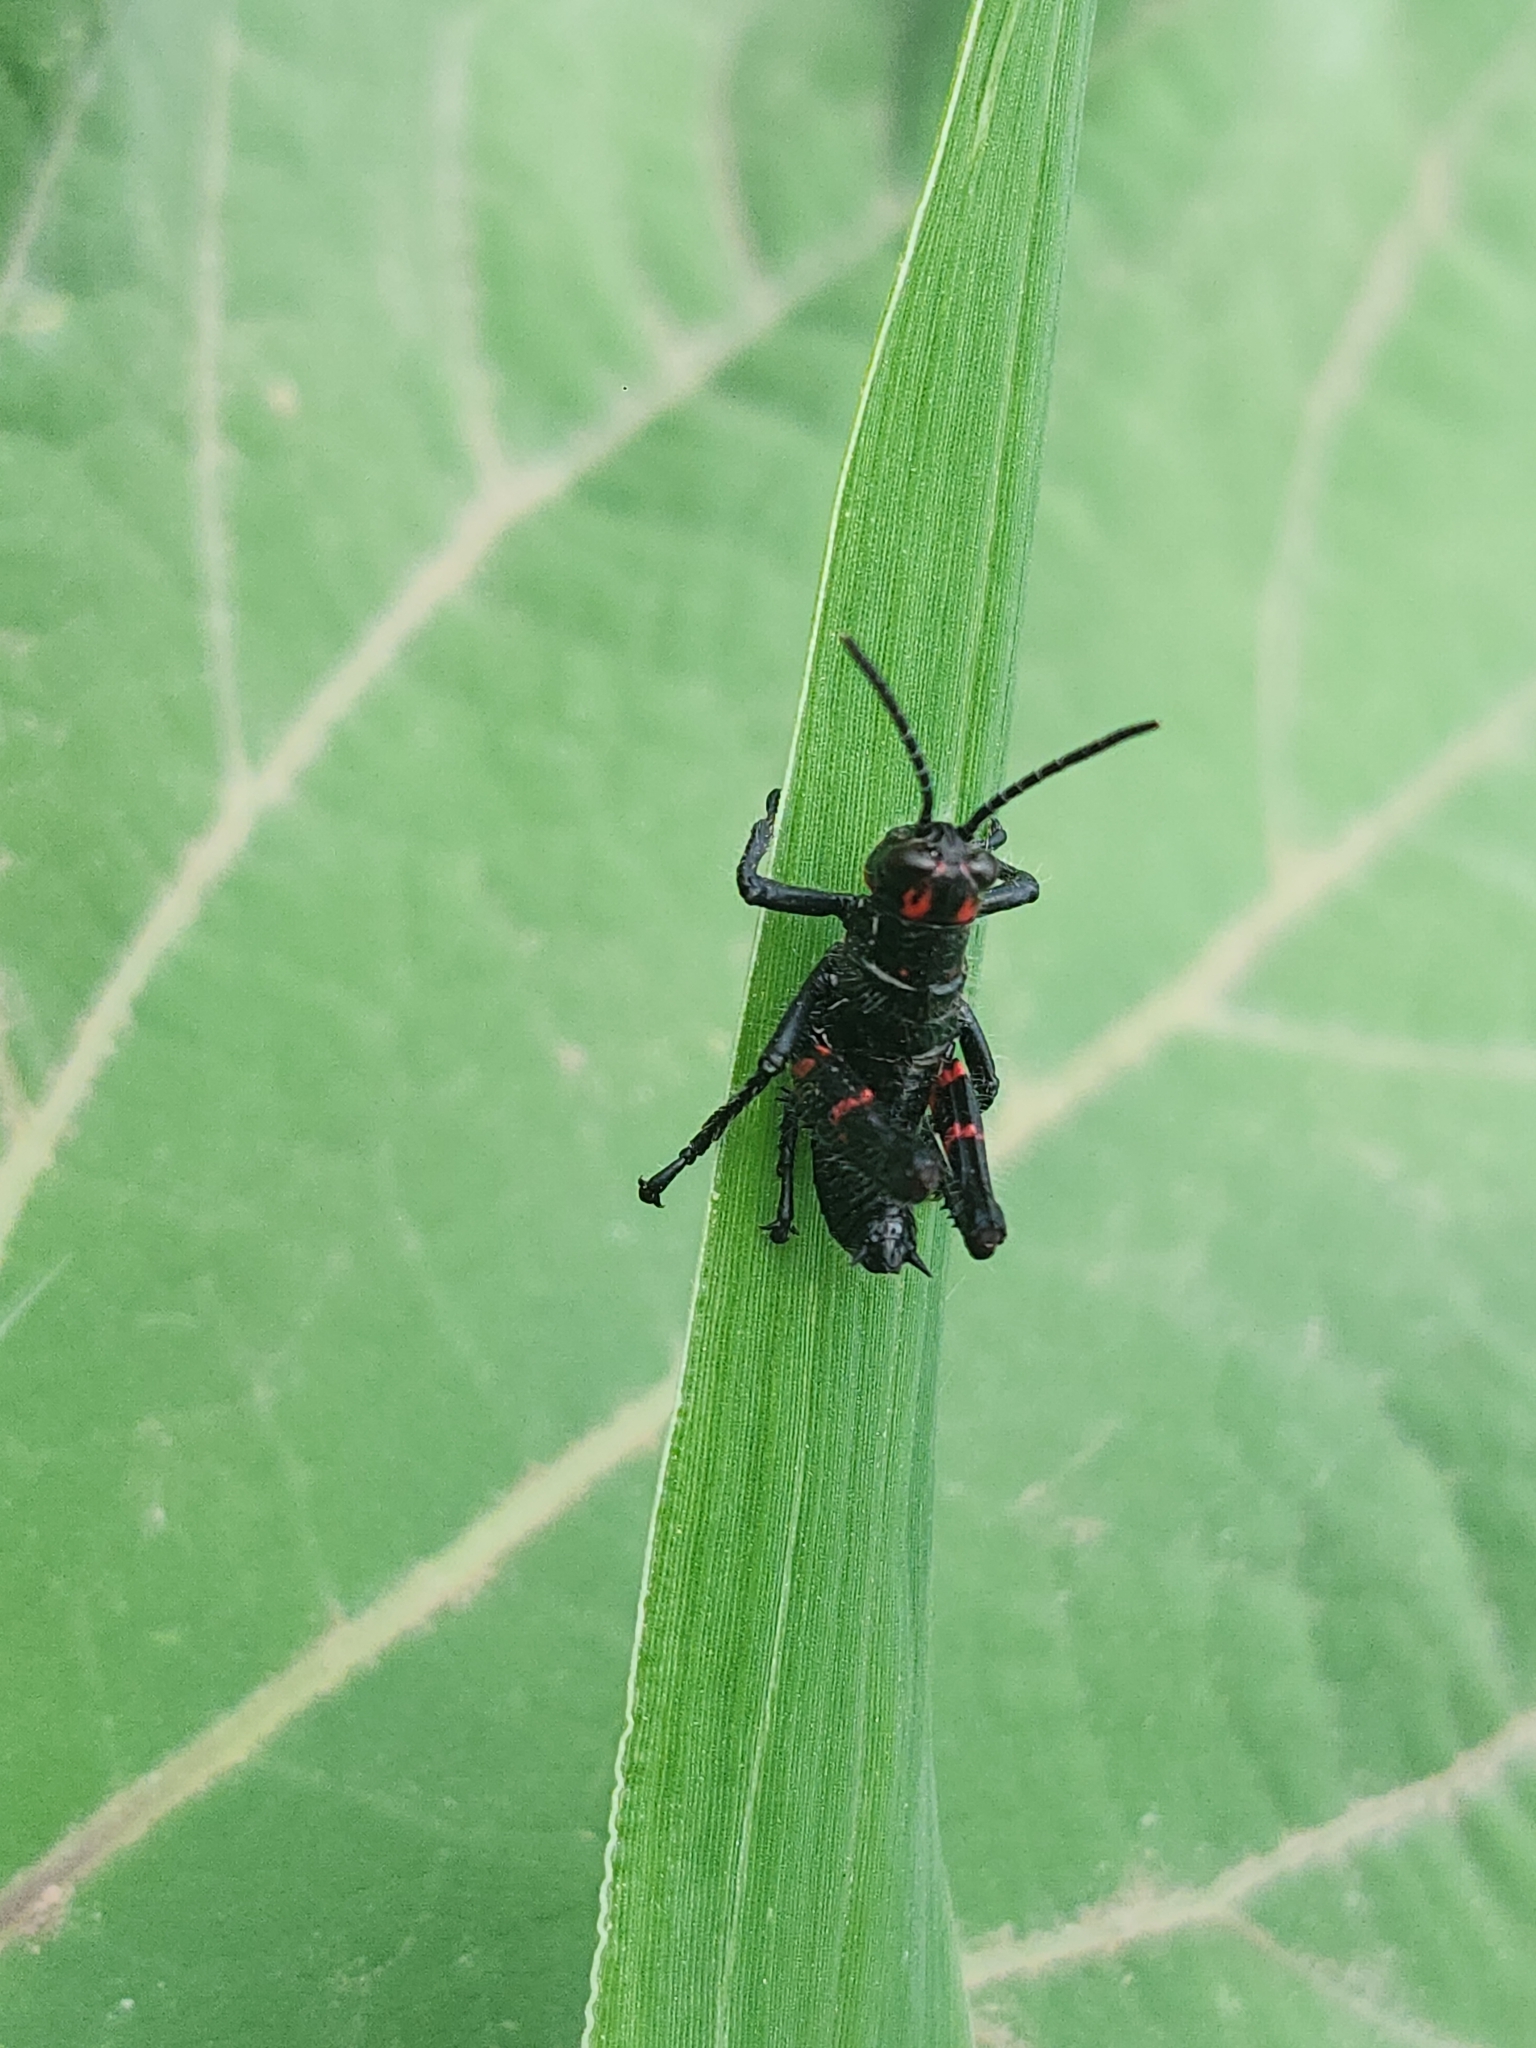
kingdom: Animalia
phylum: Arthropoda
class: Insecta
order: Orthoptera
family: Romaleidae
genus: Chromacris
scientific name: Chromacris speciosa
